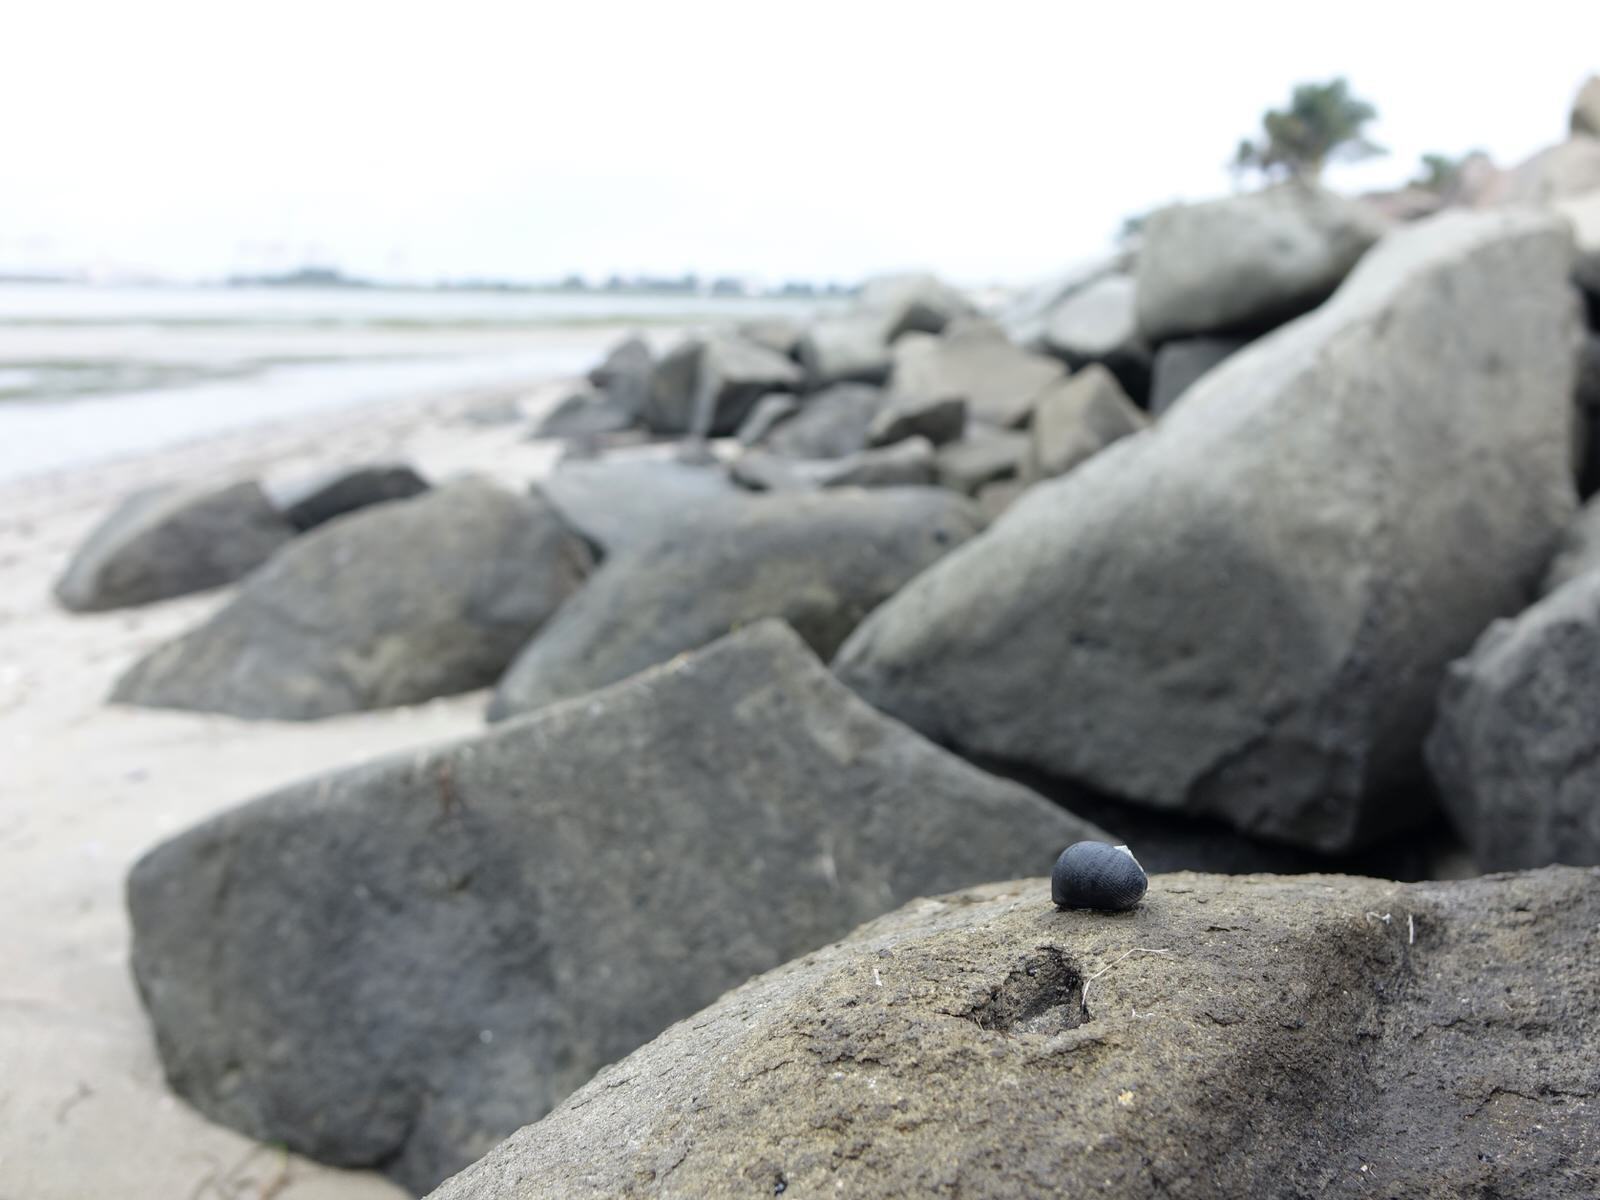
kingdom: Animalia
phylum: Mollusca
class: Gastropoda
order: Cycloneritida
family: Neritidae
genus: Nerita
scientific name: Nerita melanotragus
